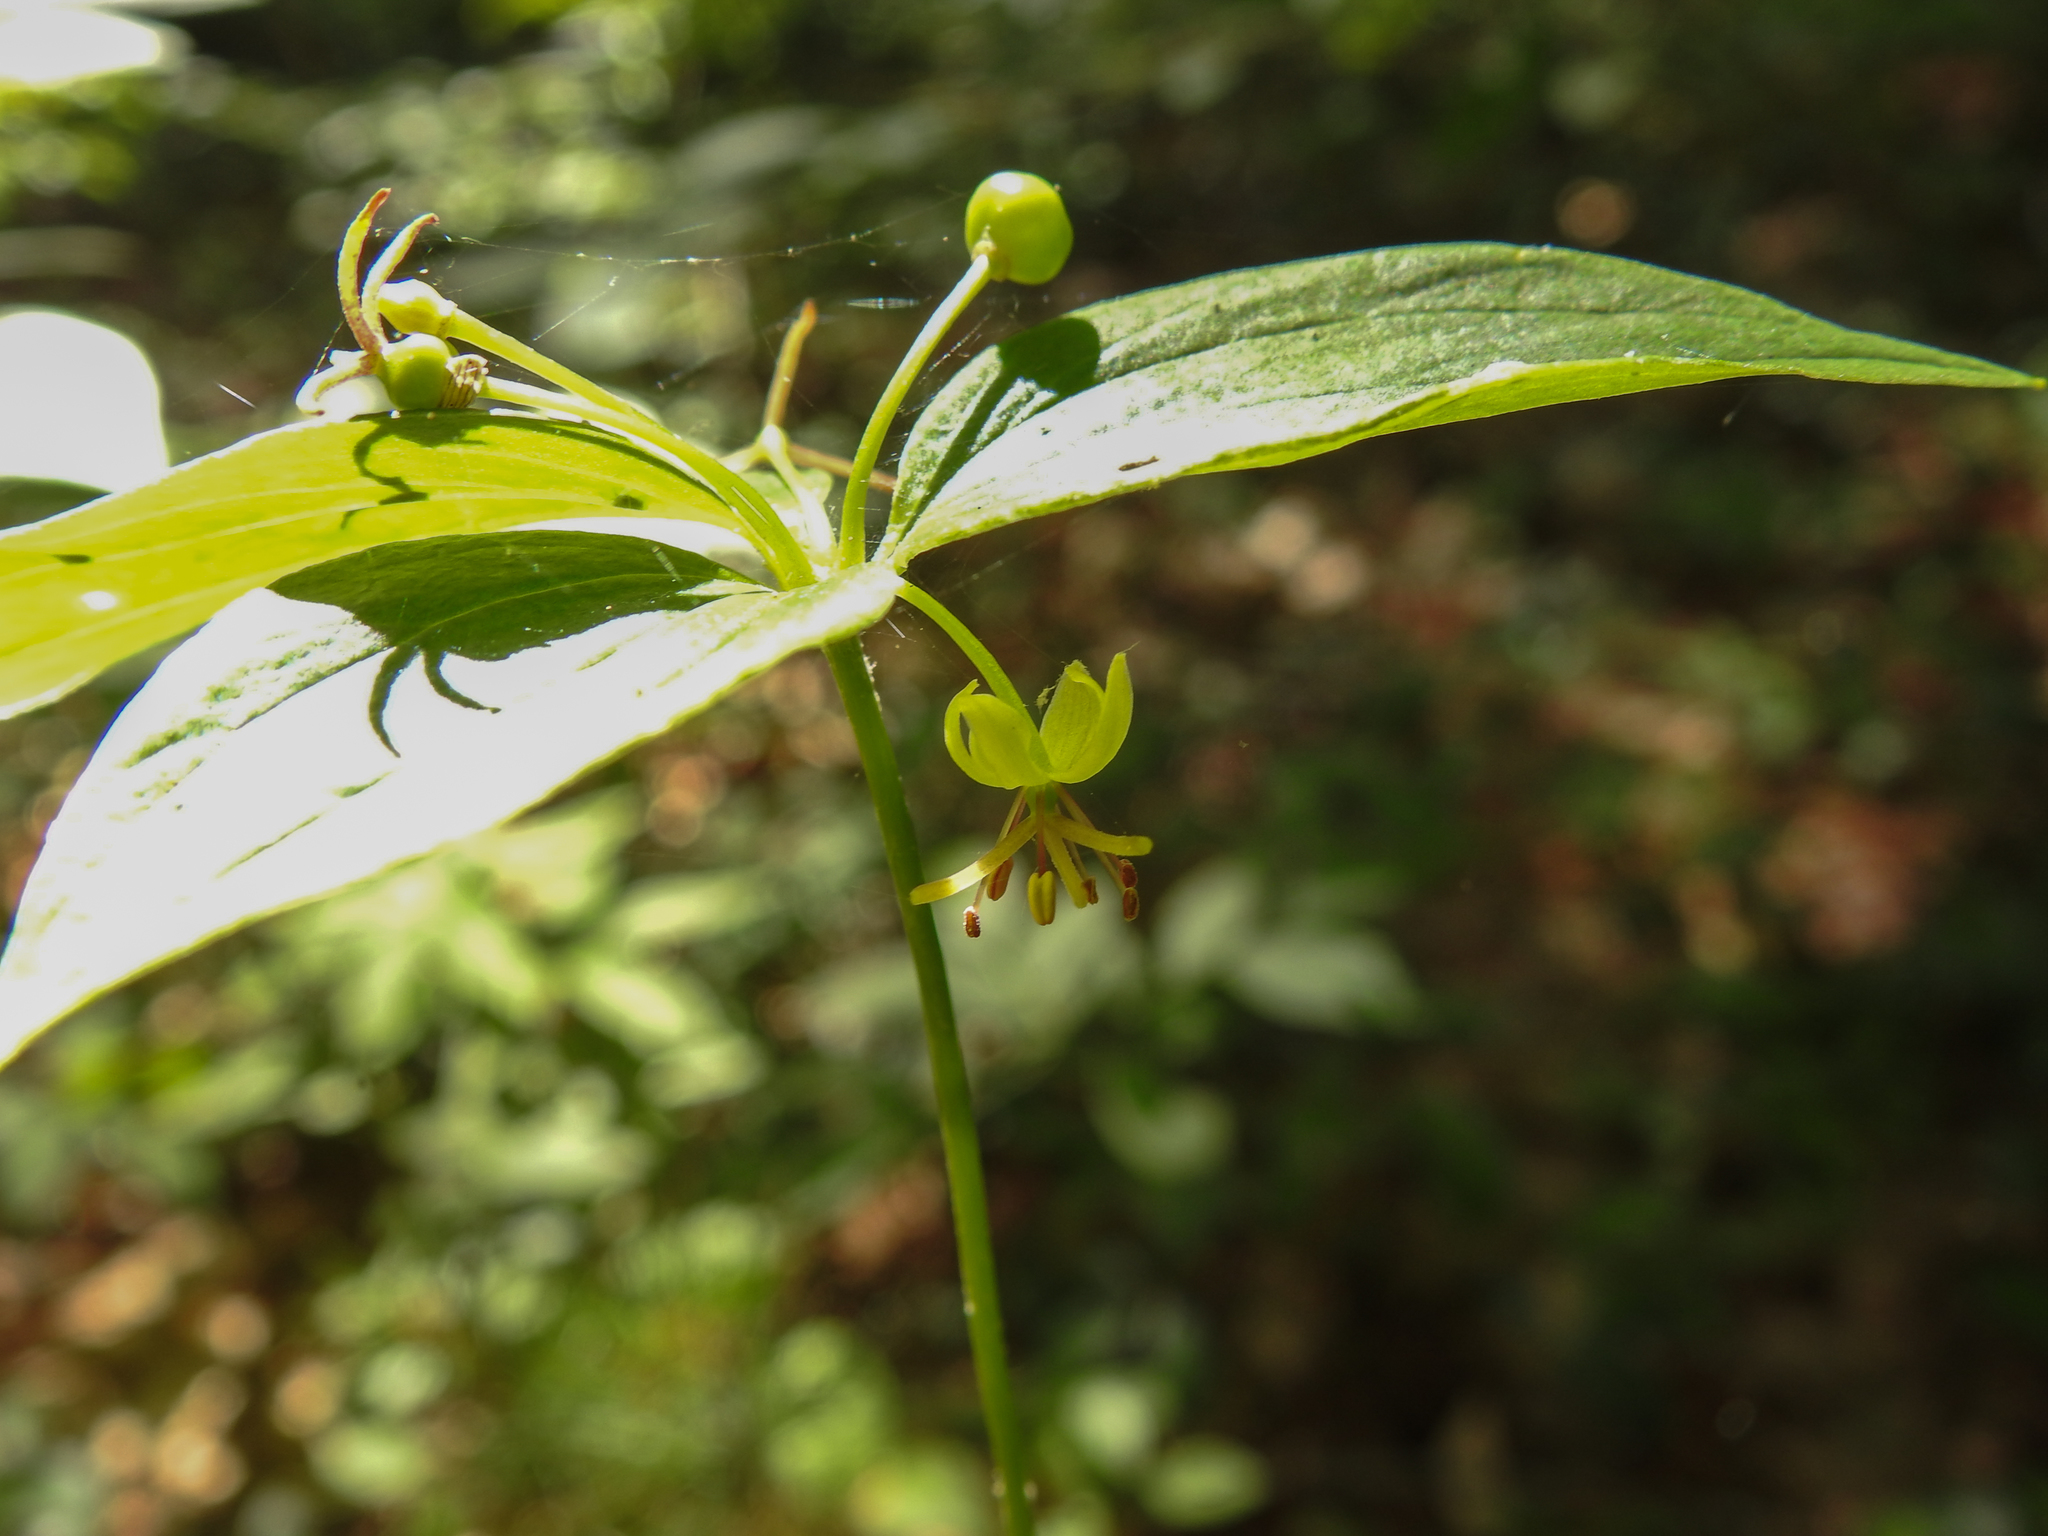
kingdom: Plantae
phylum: Tracheophyta
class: Liliopsida
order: Liliales
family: Liliaceae
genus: Medeola
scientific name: Medeola virginiana
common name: Indian cucumber-root
